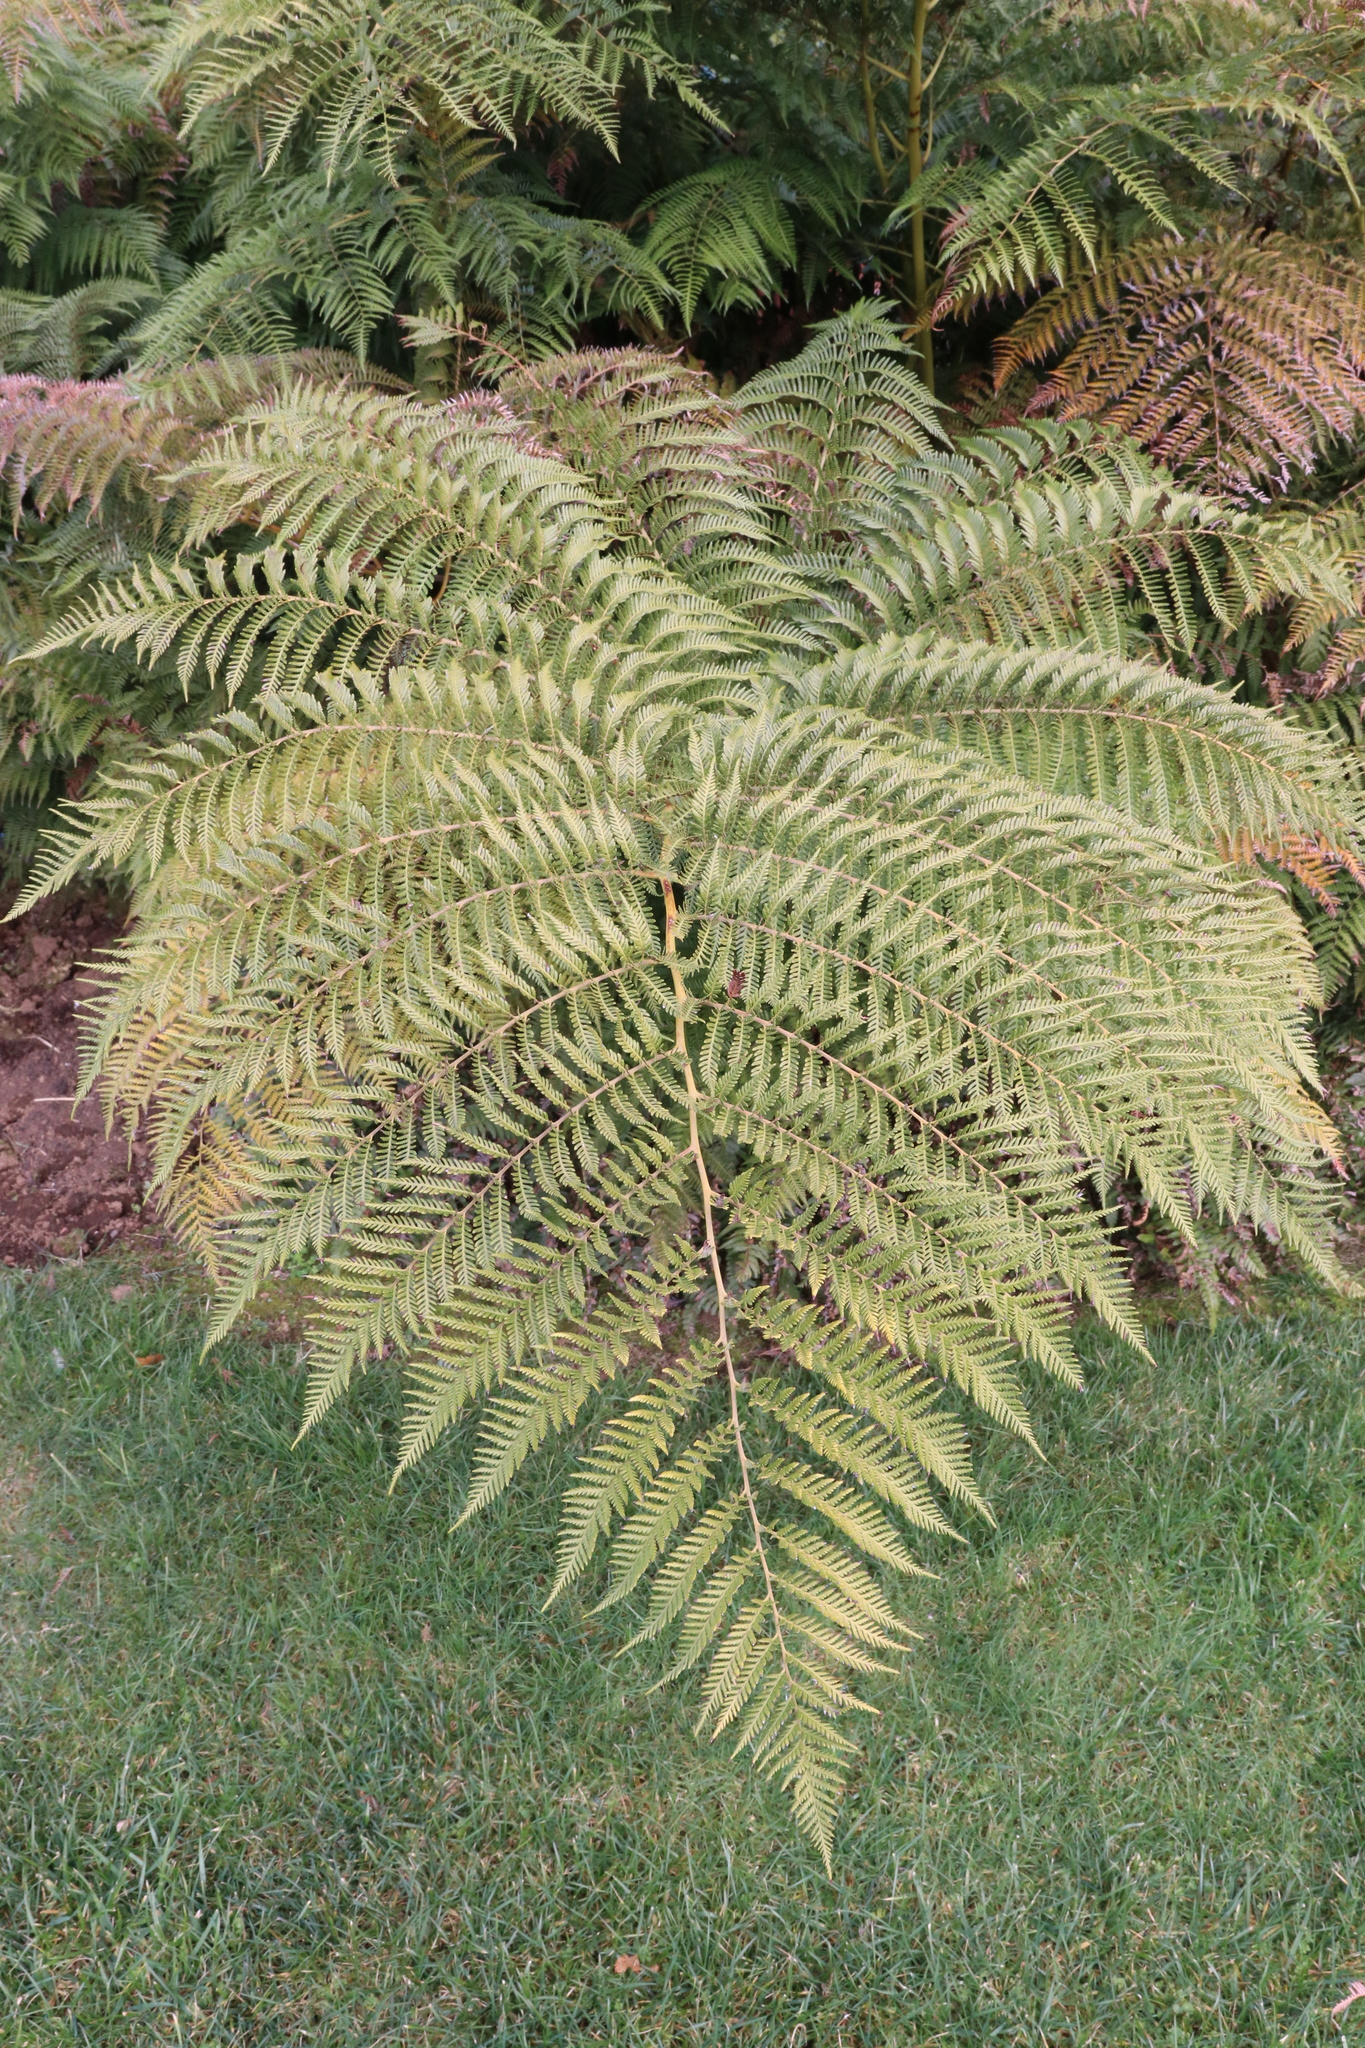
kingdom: Plantae
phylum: Tracheophyta
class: Polypodiopsida
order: Cyatheales
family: Dicksoniaceae
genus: Lophosoria
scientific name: Lophosoria quadripinnata
